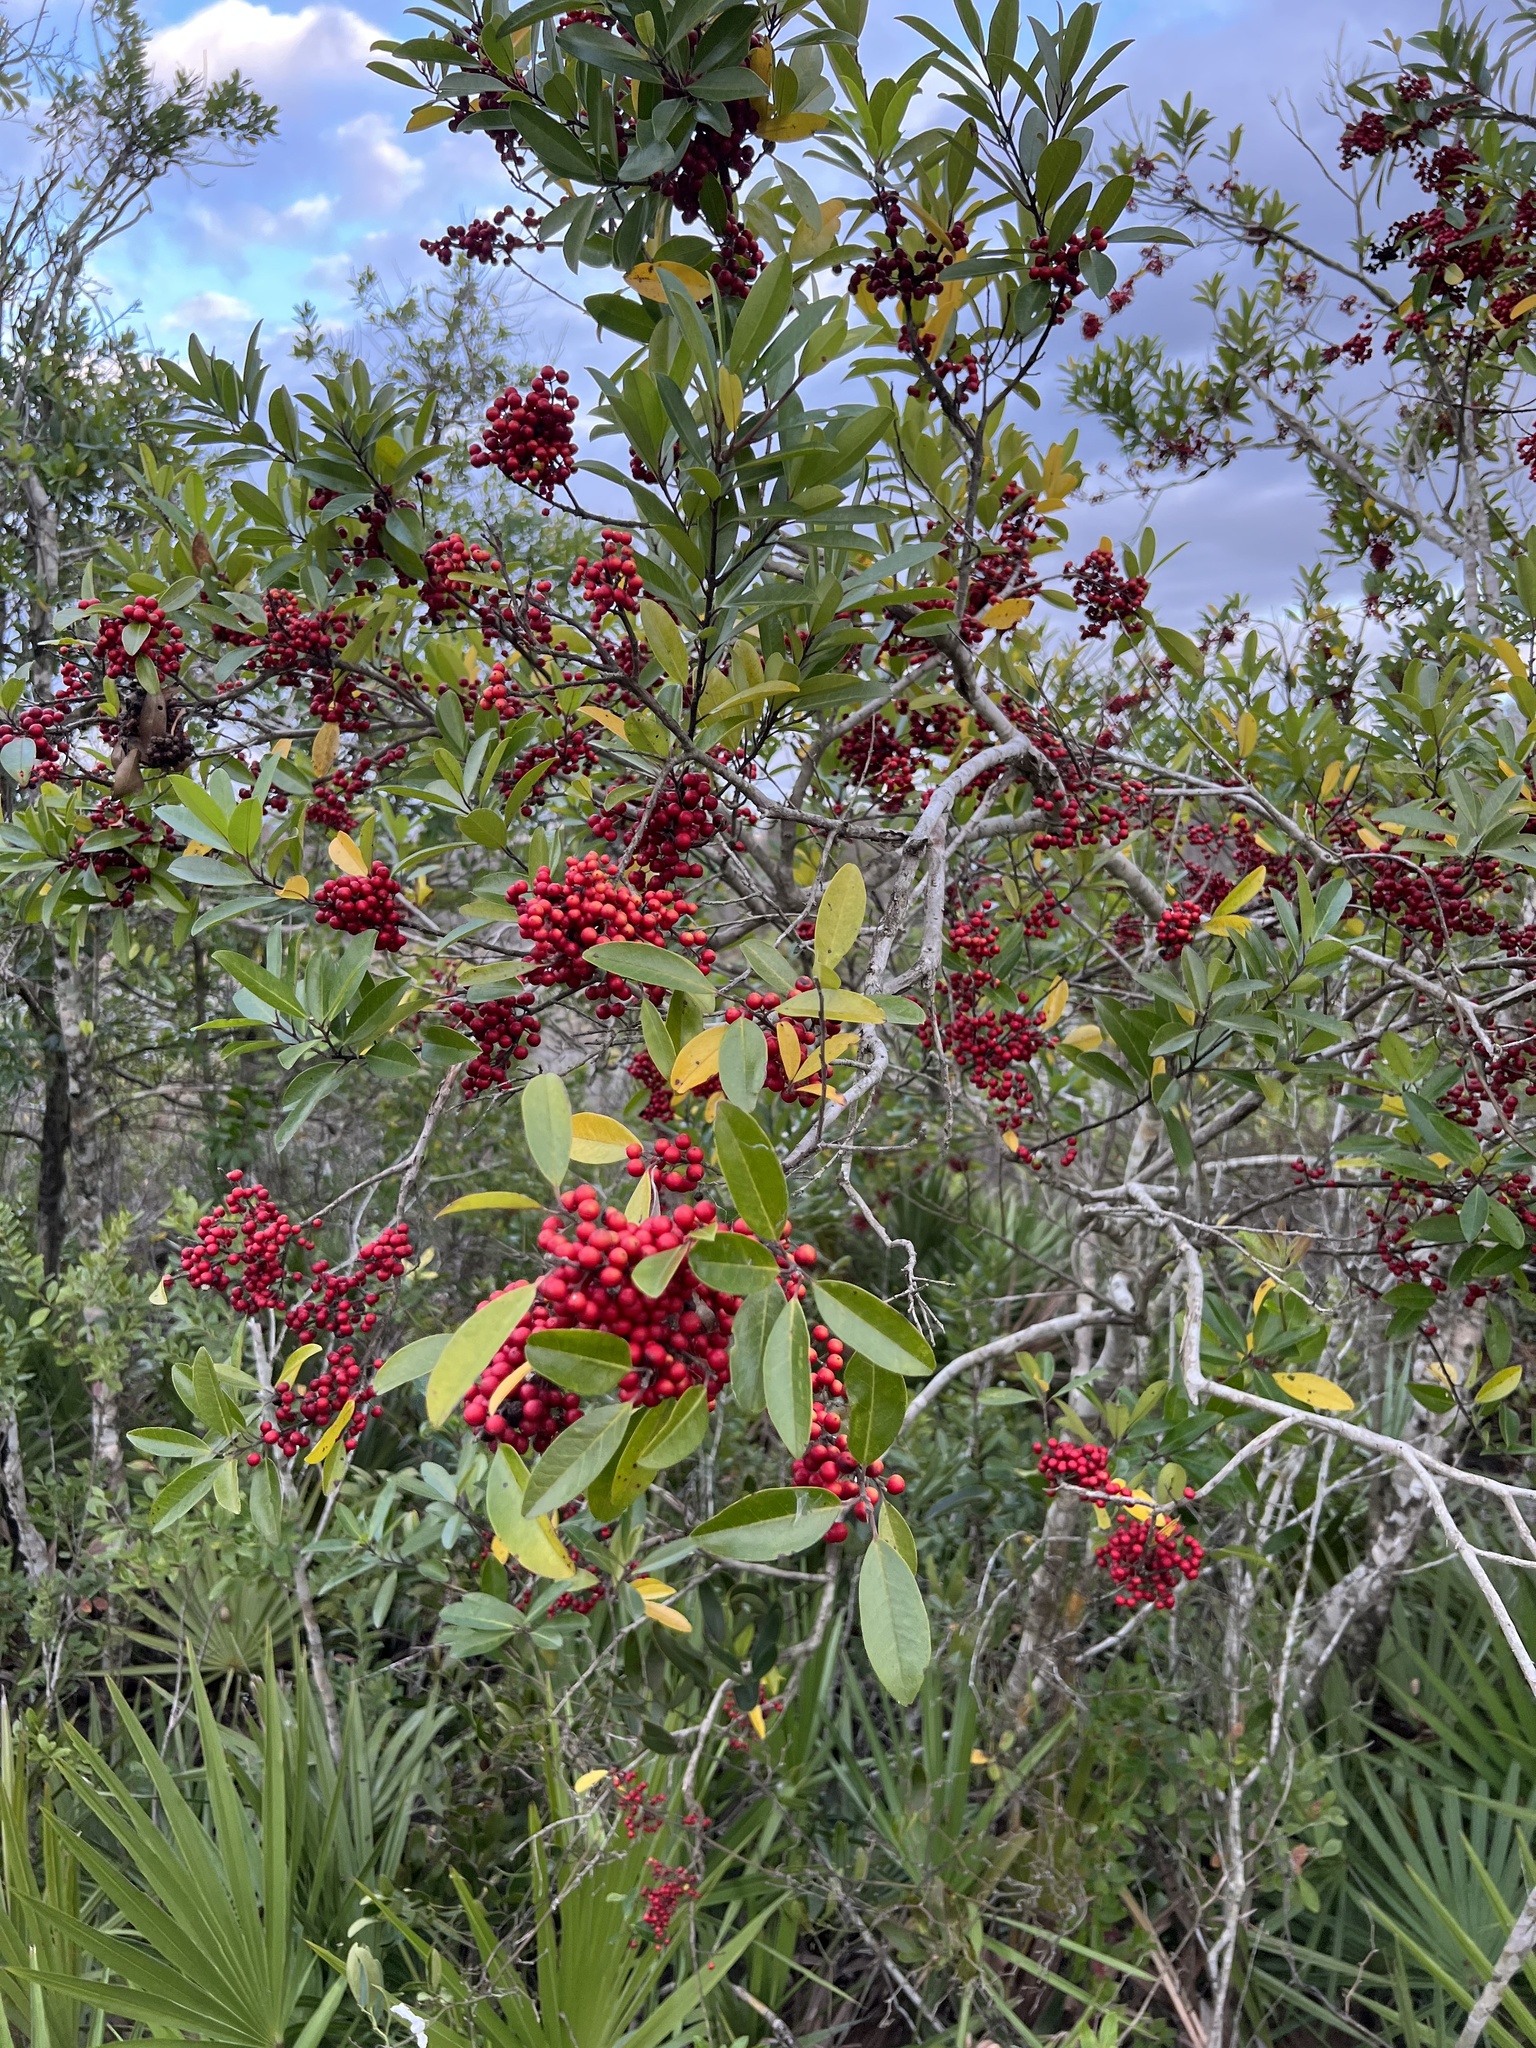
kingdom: Plantae
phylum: Tracheophyta
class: Magnoliopsida
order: Aquifoliales
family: Aquifoliaceae
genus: Ilex
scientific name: Ilex cassine
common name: Dahoon
